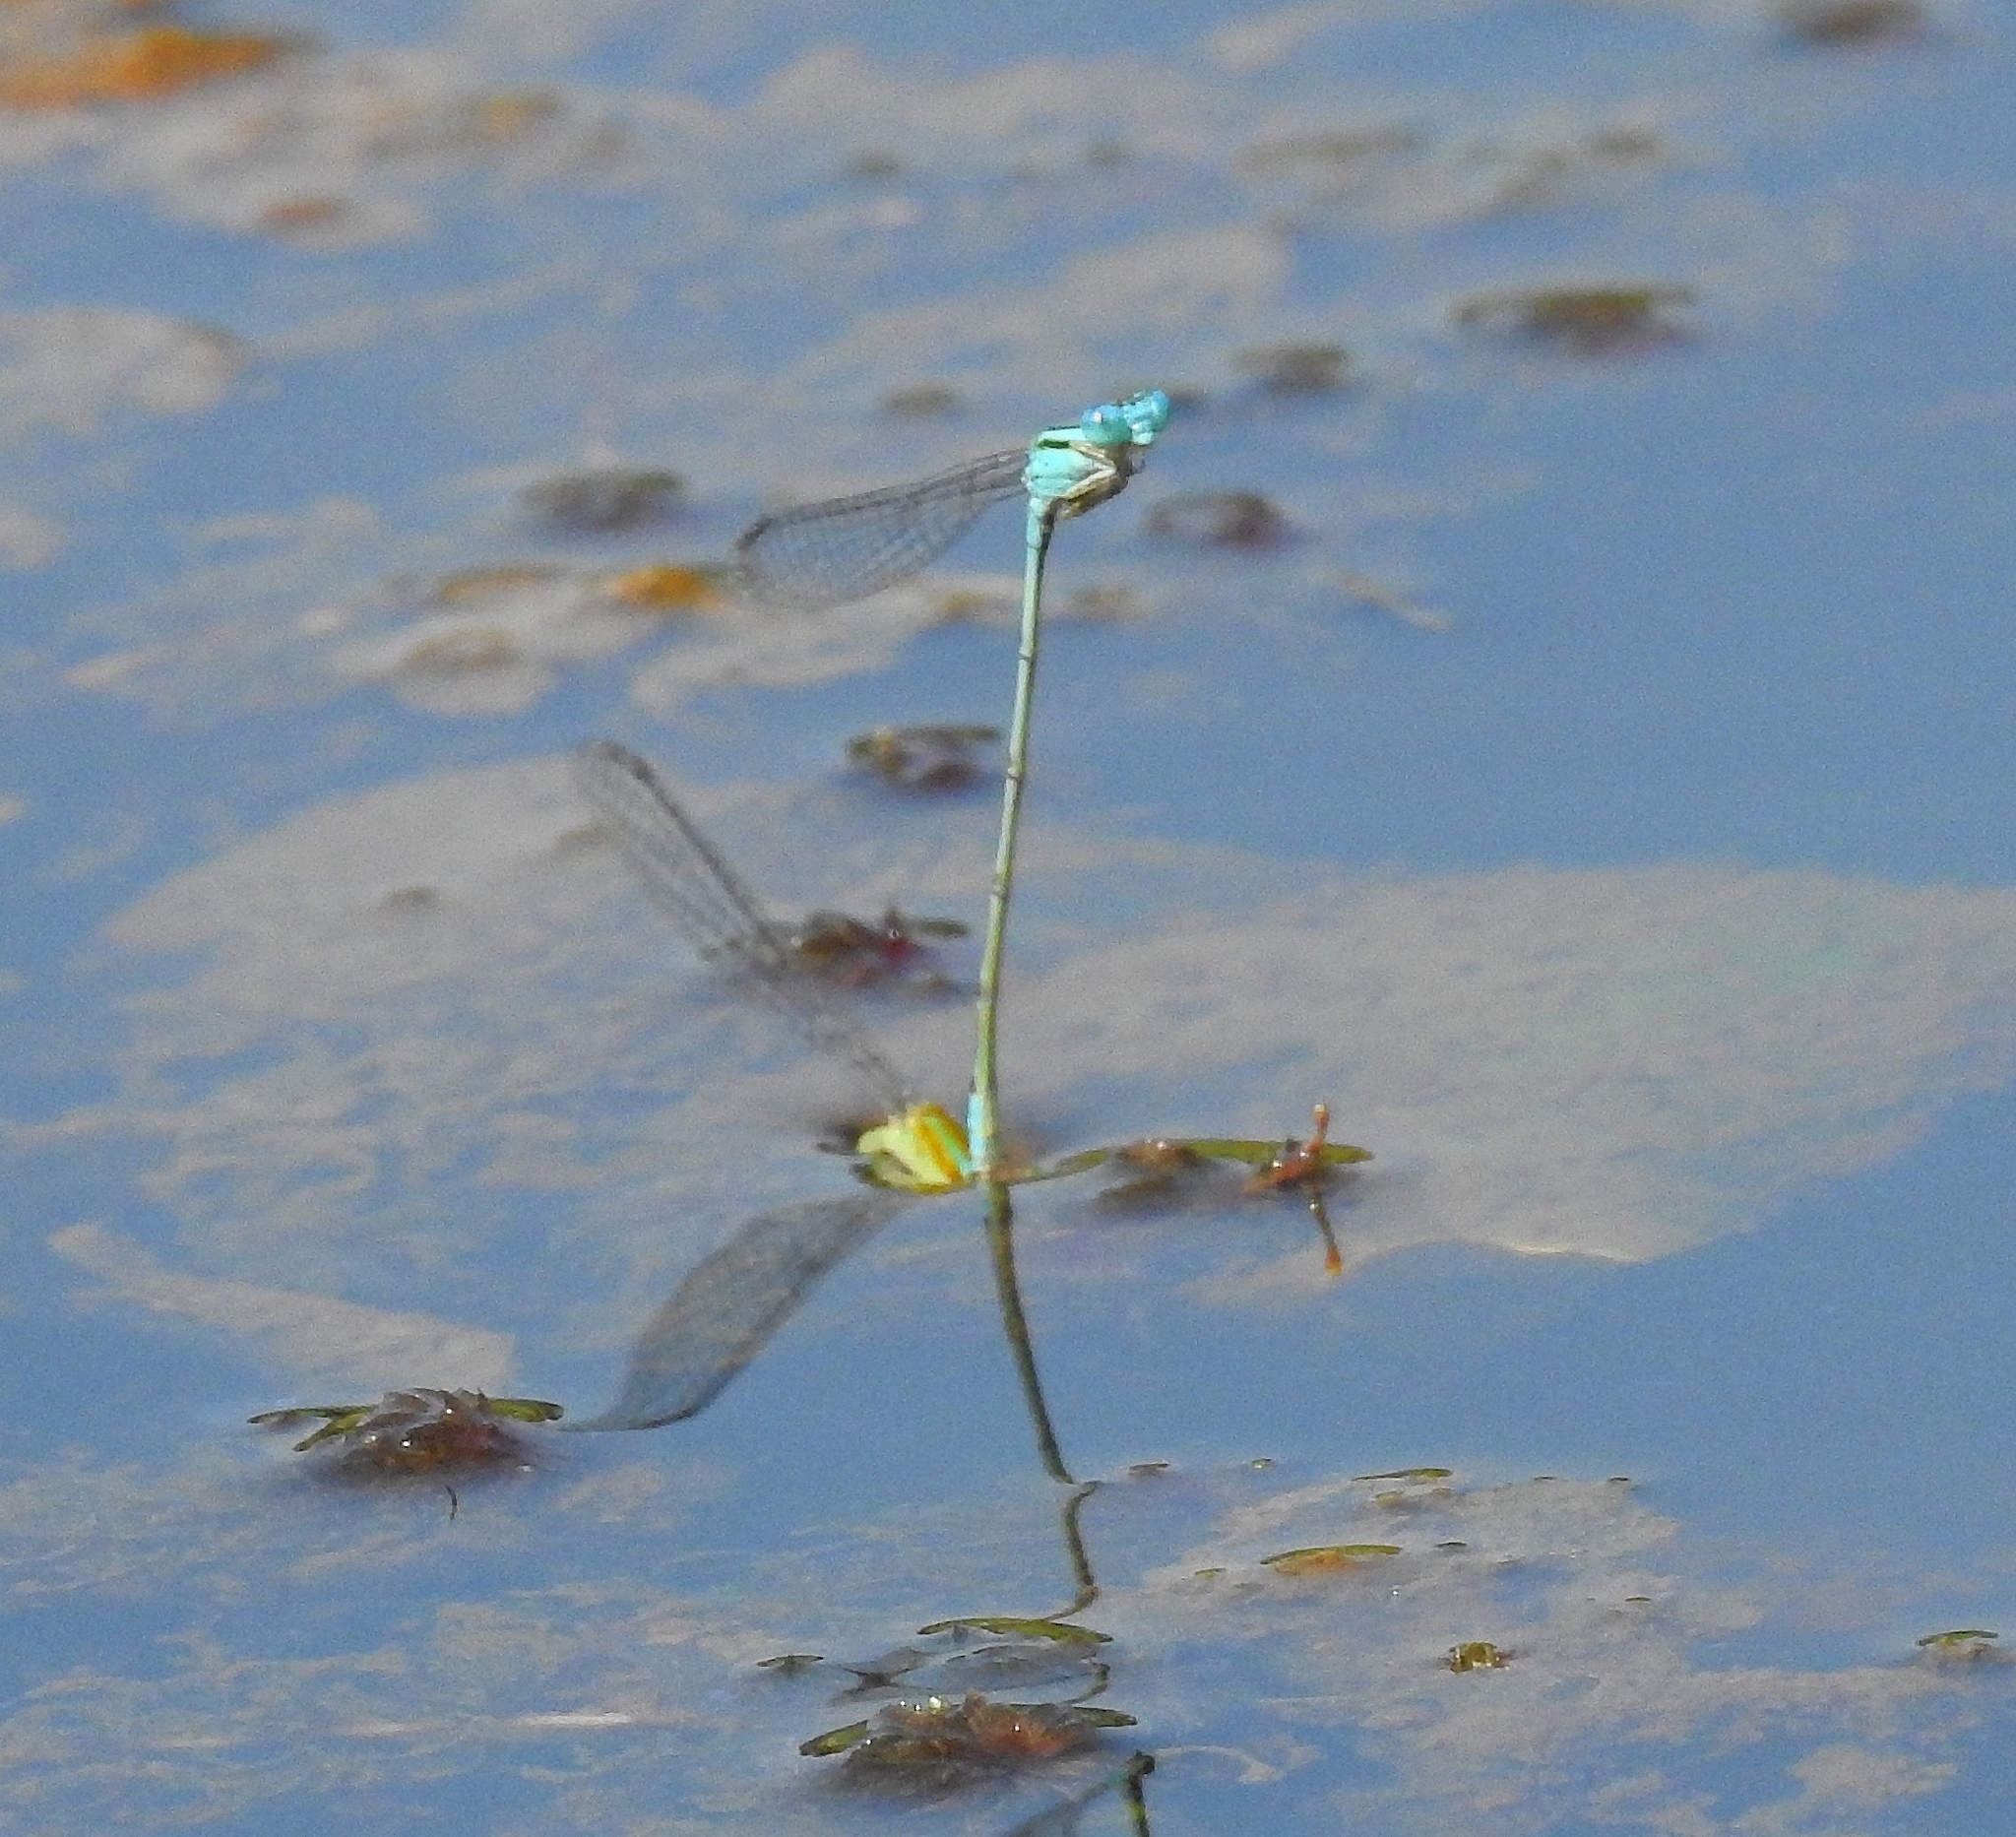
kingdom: Animalia
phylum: Arthropoda
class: Insecta
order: Odonata
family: Coenagrionidae
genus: Pseudagrion
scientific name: Pseudagrion microcephalum
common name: Blue riverdamsel
